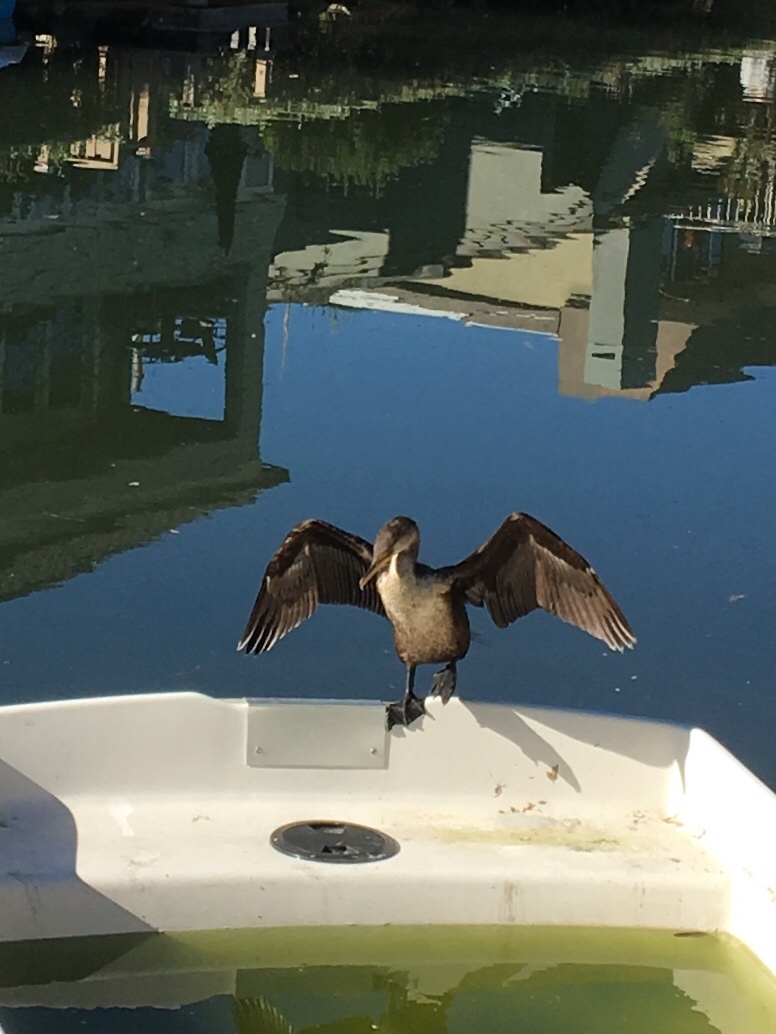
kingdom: Animalia
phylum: Chordata
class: Aves
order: Suliformes
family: Phalacrocoracidae
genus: Phalacrocorax
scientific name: Phalacrocorax auritus
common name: Double-crested cormorant
